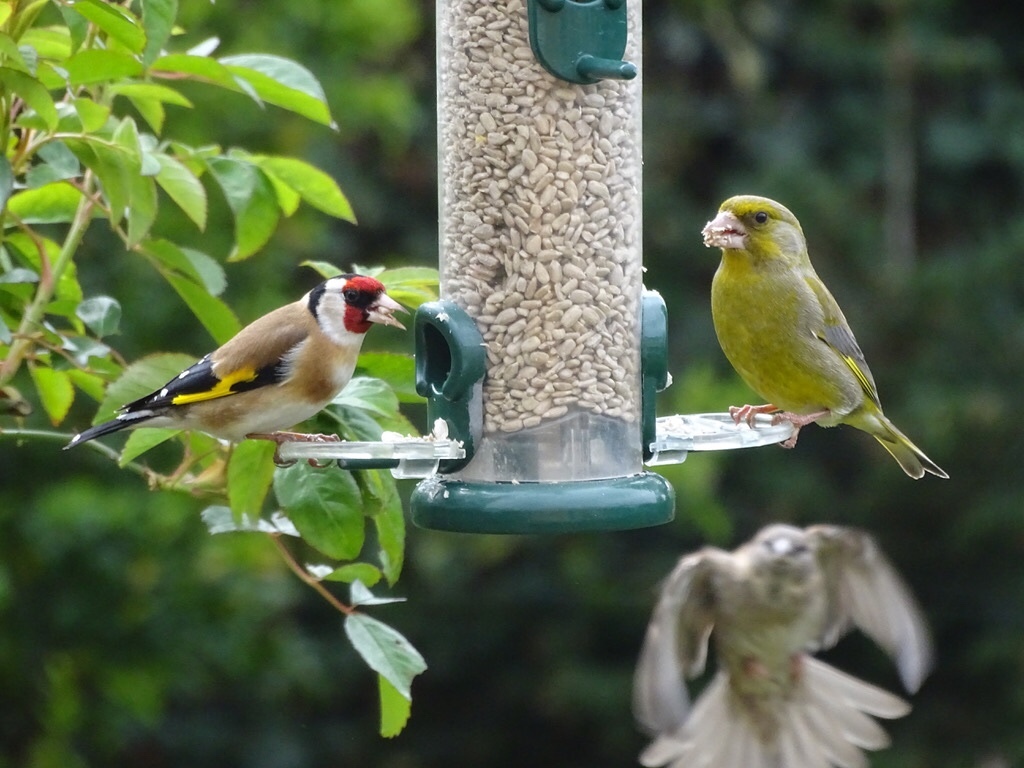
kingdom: Plantae
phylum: Tracheophyta
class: Liliopsida
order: Poales
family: Poaceae
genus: Chloris
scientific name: Chloris chloris
